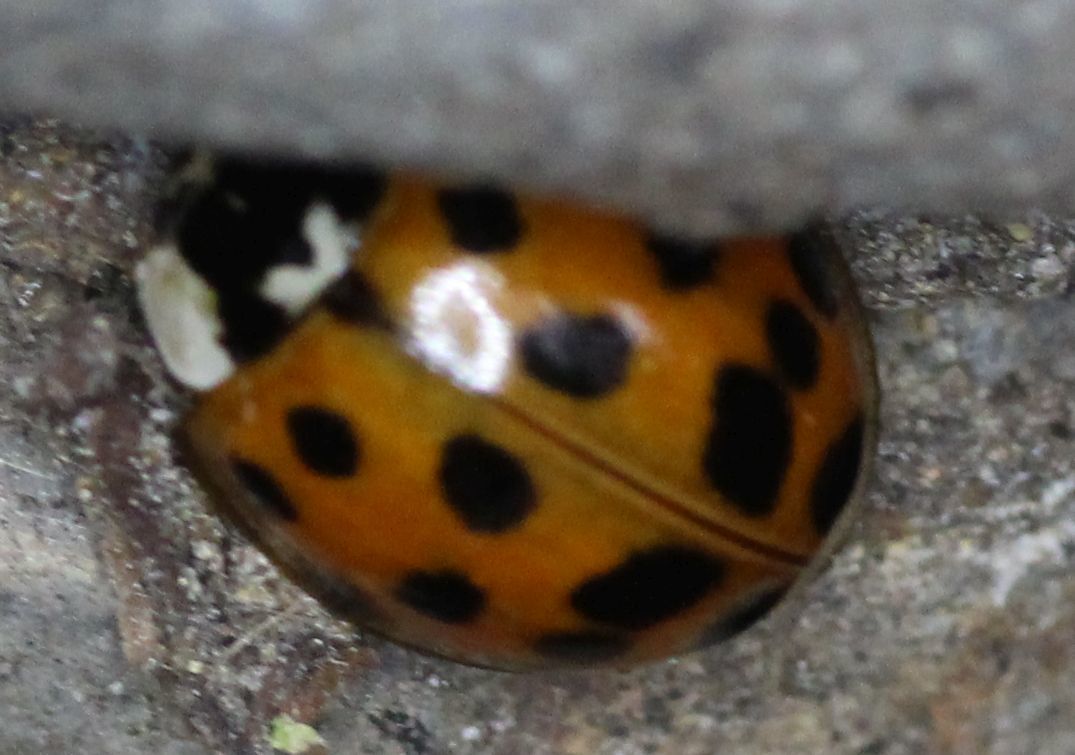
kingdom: Animalia
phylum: Arthropoda
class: Insecta
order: Coleoptera
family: Coccinellidae
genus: Harmonia
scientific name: Harmonia axyridis
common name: Harlequin ladybird
